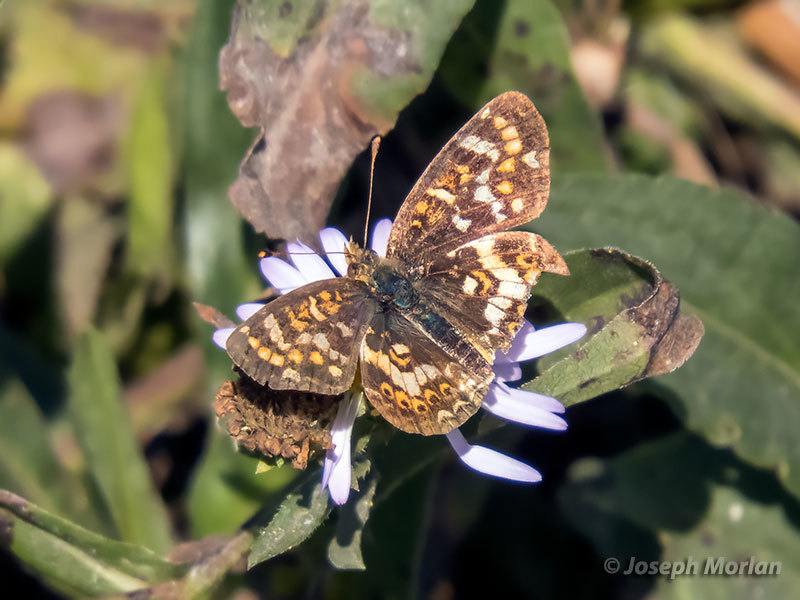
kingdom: Animalia
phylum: Arthropoda
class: Insecta
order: Lepidoptera
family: Nymphalidae
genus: Phyciodes
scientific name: Phyciodes tharos
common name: Pearl crescent
